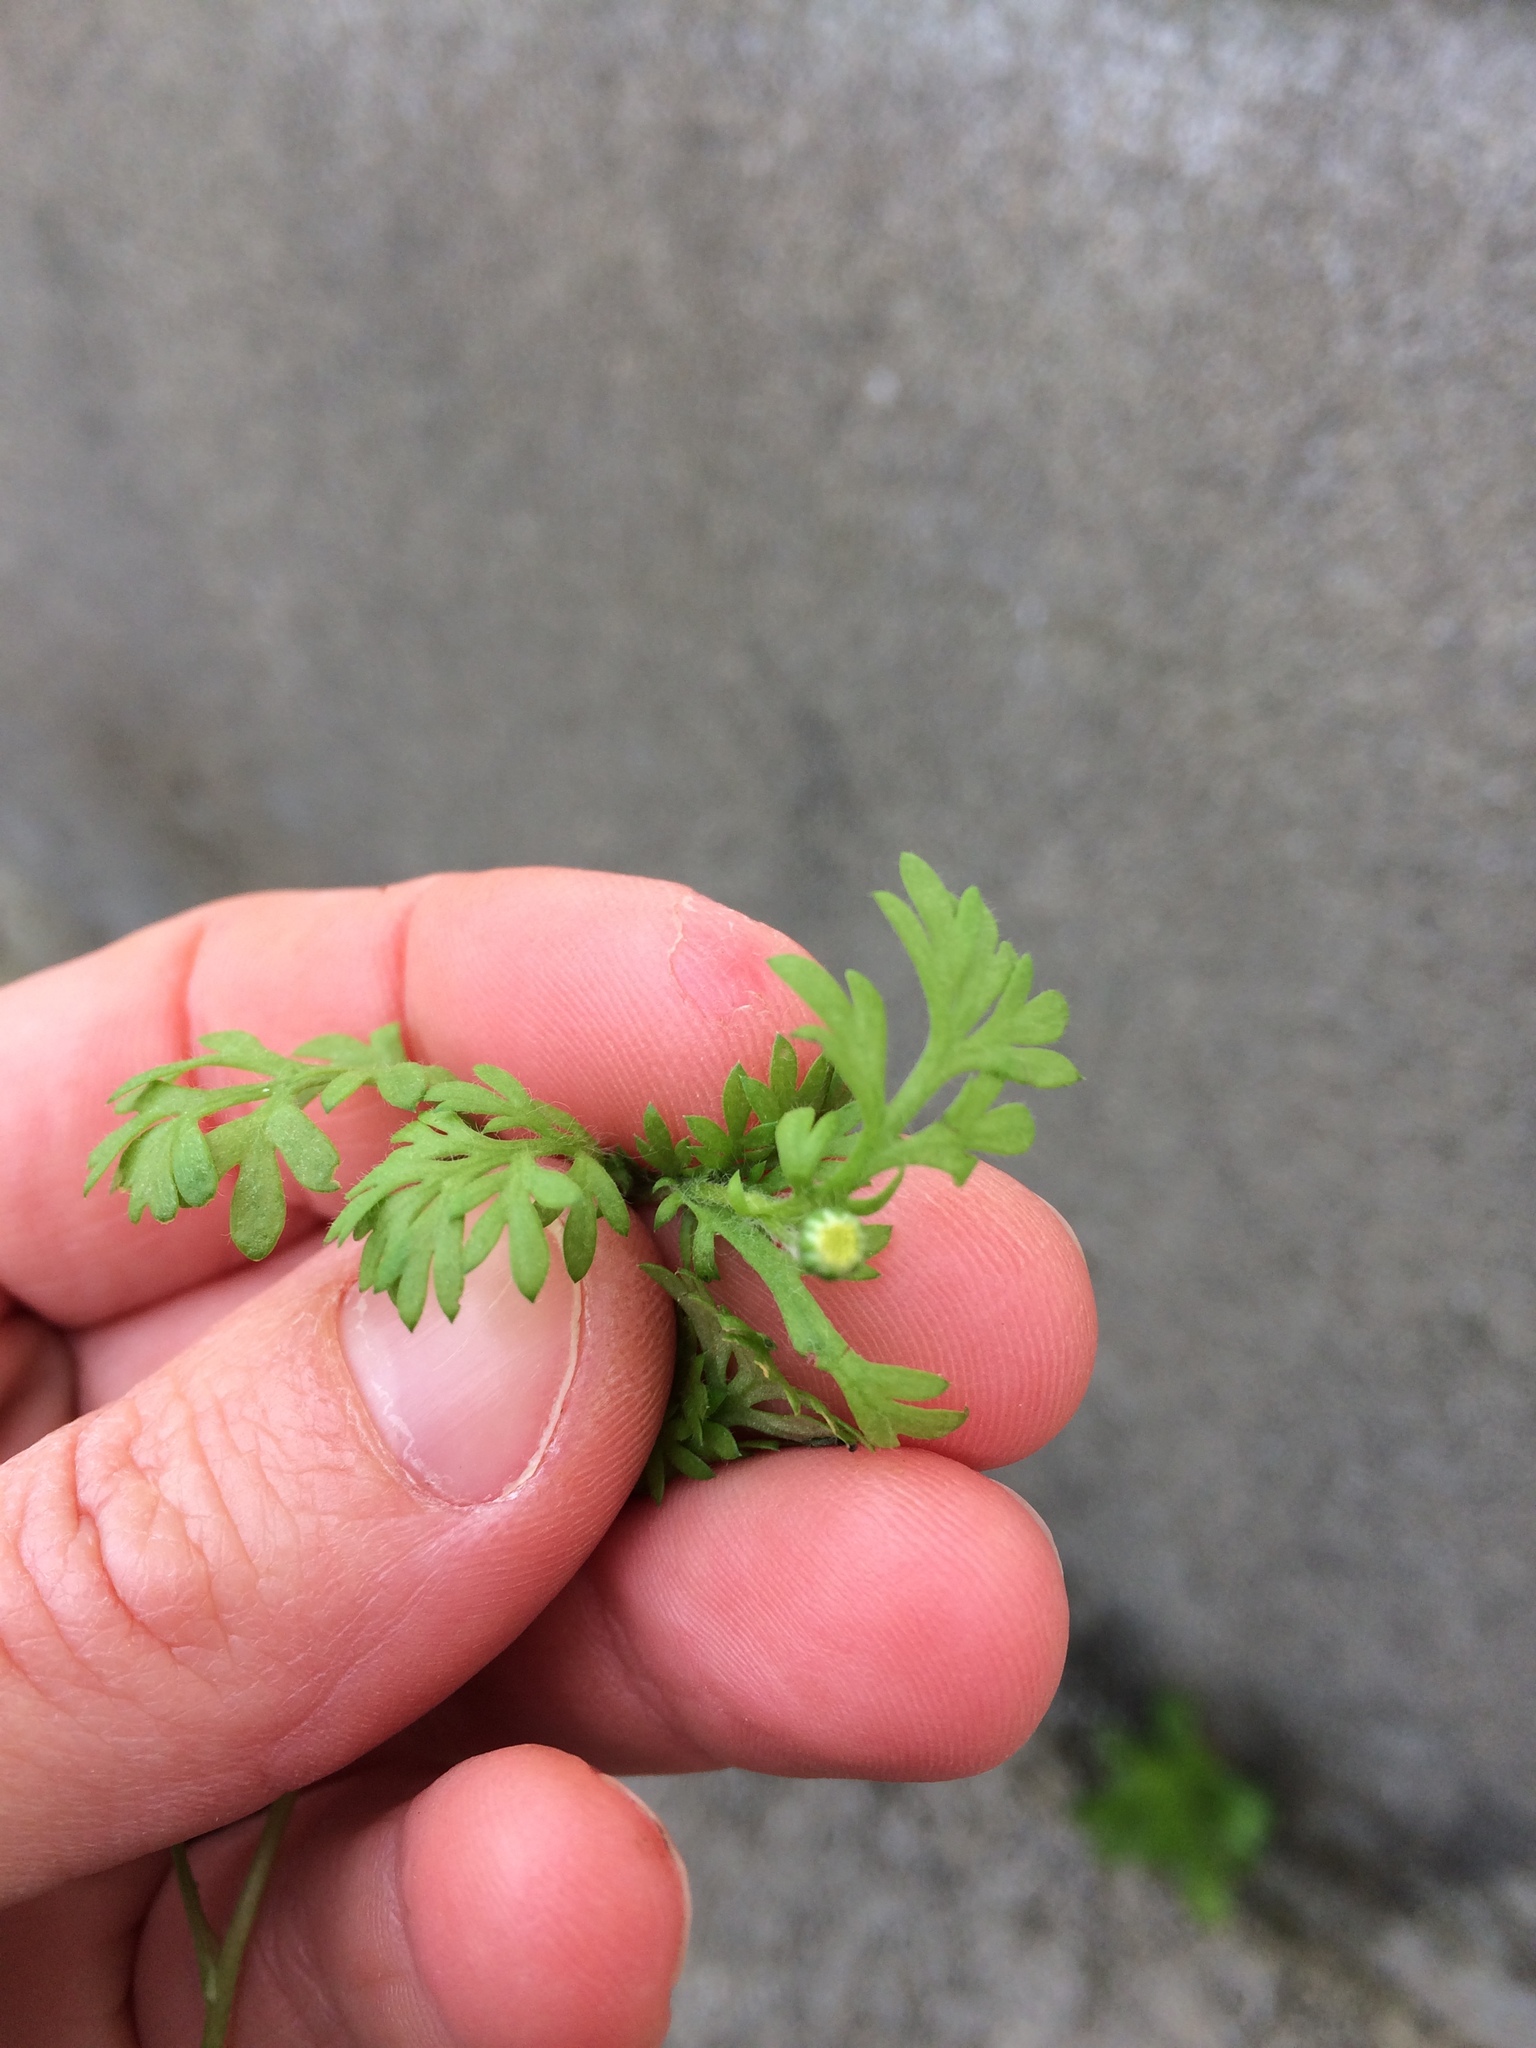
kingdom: Plantae
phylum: Tracheophyta
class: Magnoliopsida
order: Asterales
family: Asteraceae
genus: Cotula
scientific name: Cotula australis
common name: Australian waterbuttons
